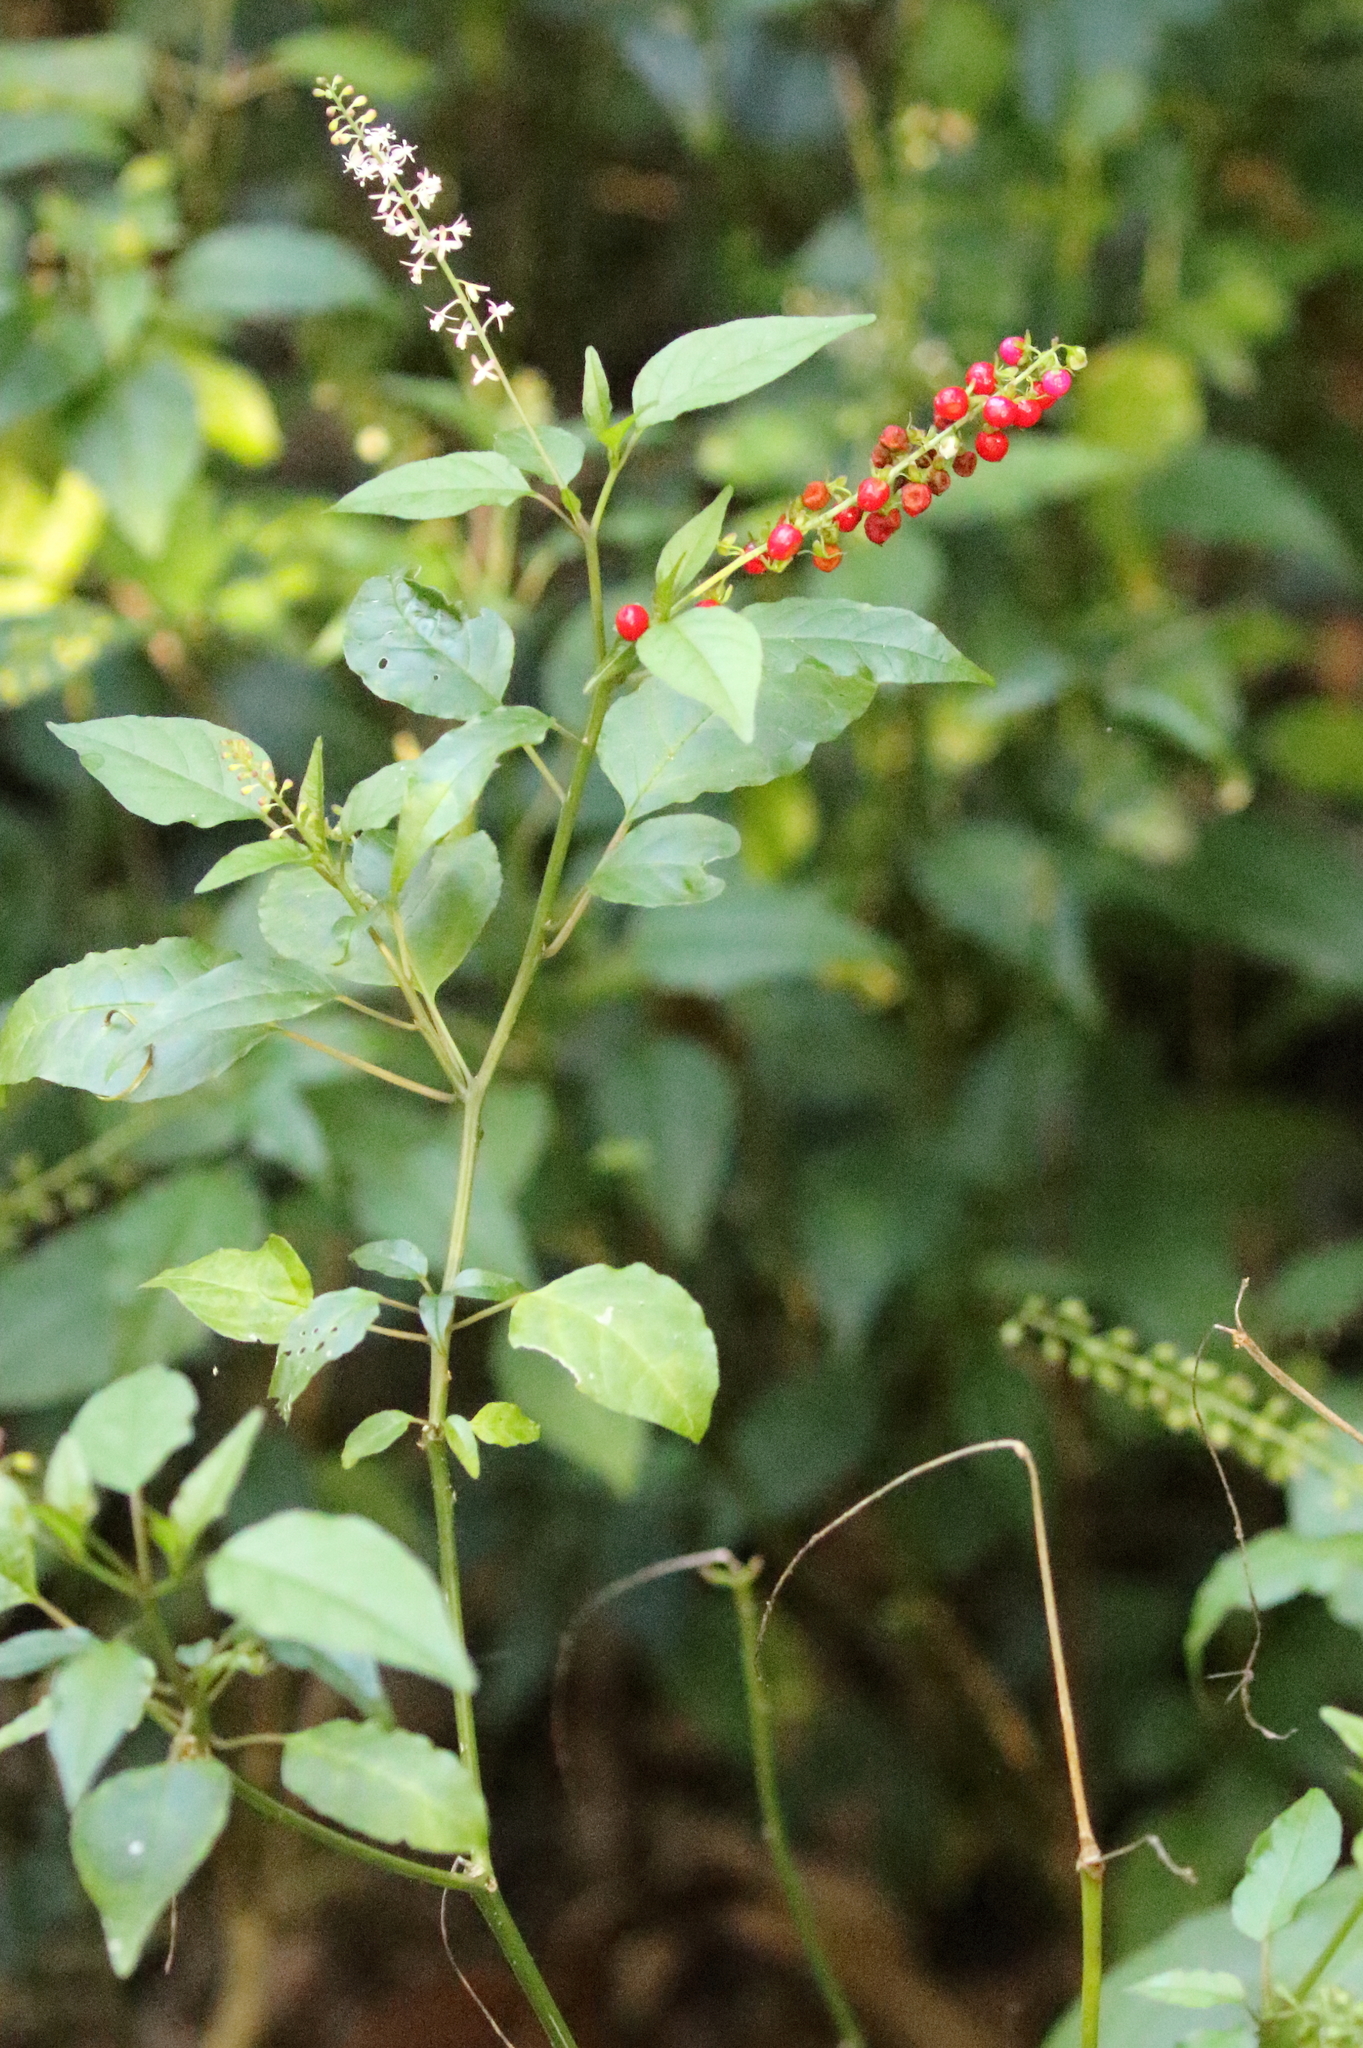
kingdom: Plantae
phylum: Tracheophyta
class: Magnoliopsida
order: Caryophyllales
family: Phytolaccaceae
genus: Rivina
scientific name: Rivina humilis
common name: Rougeplant
